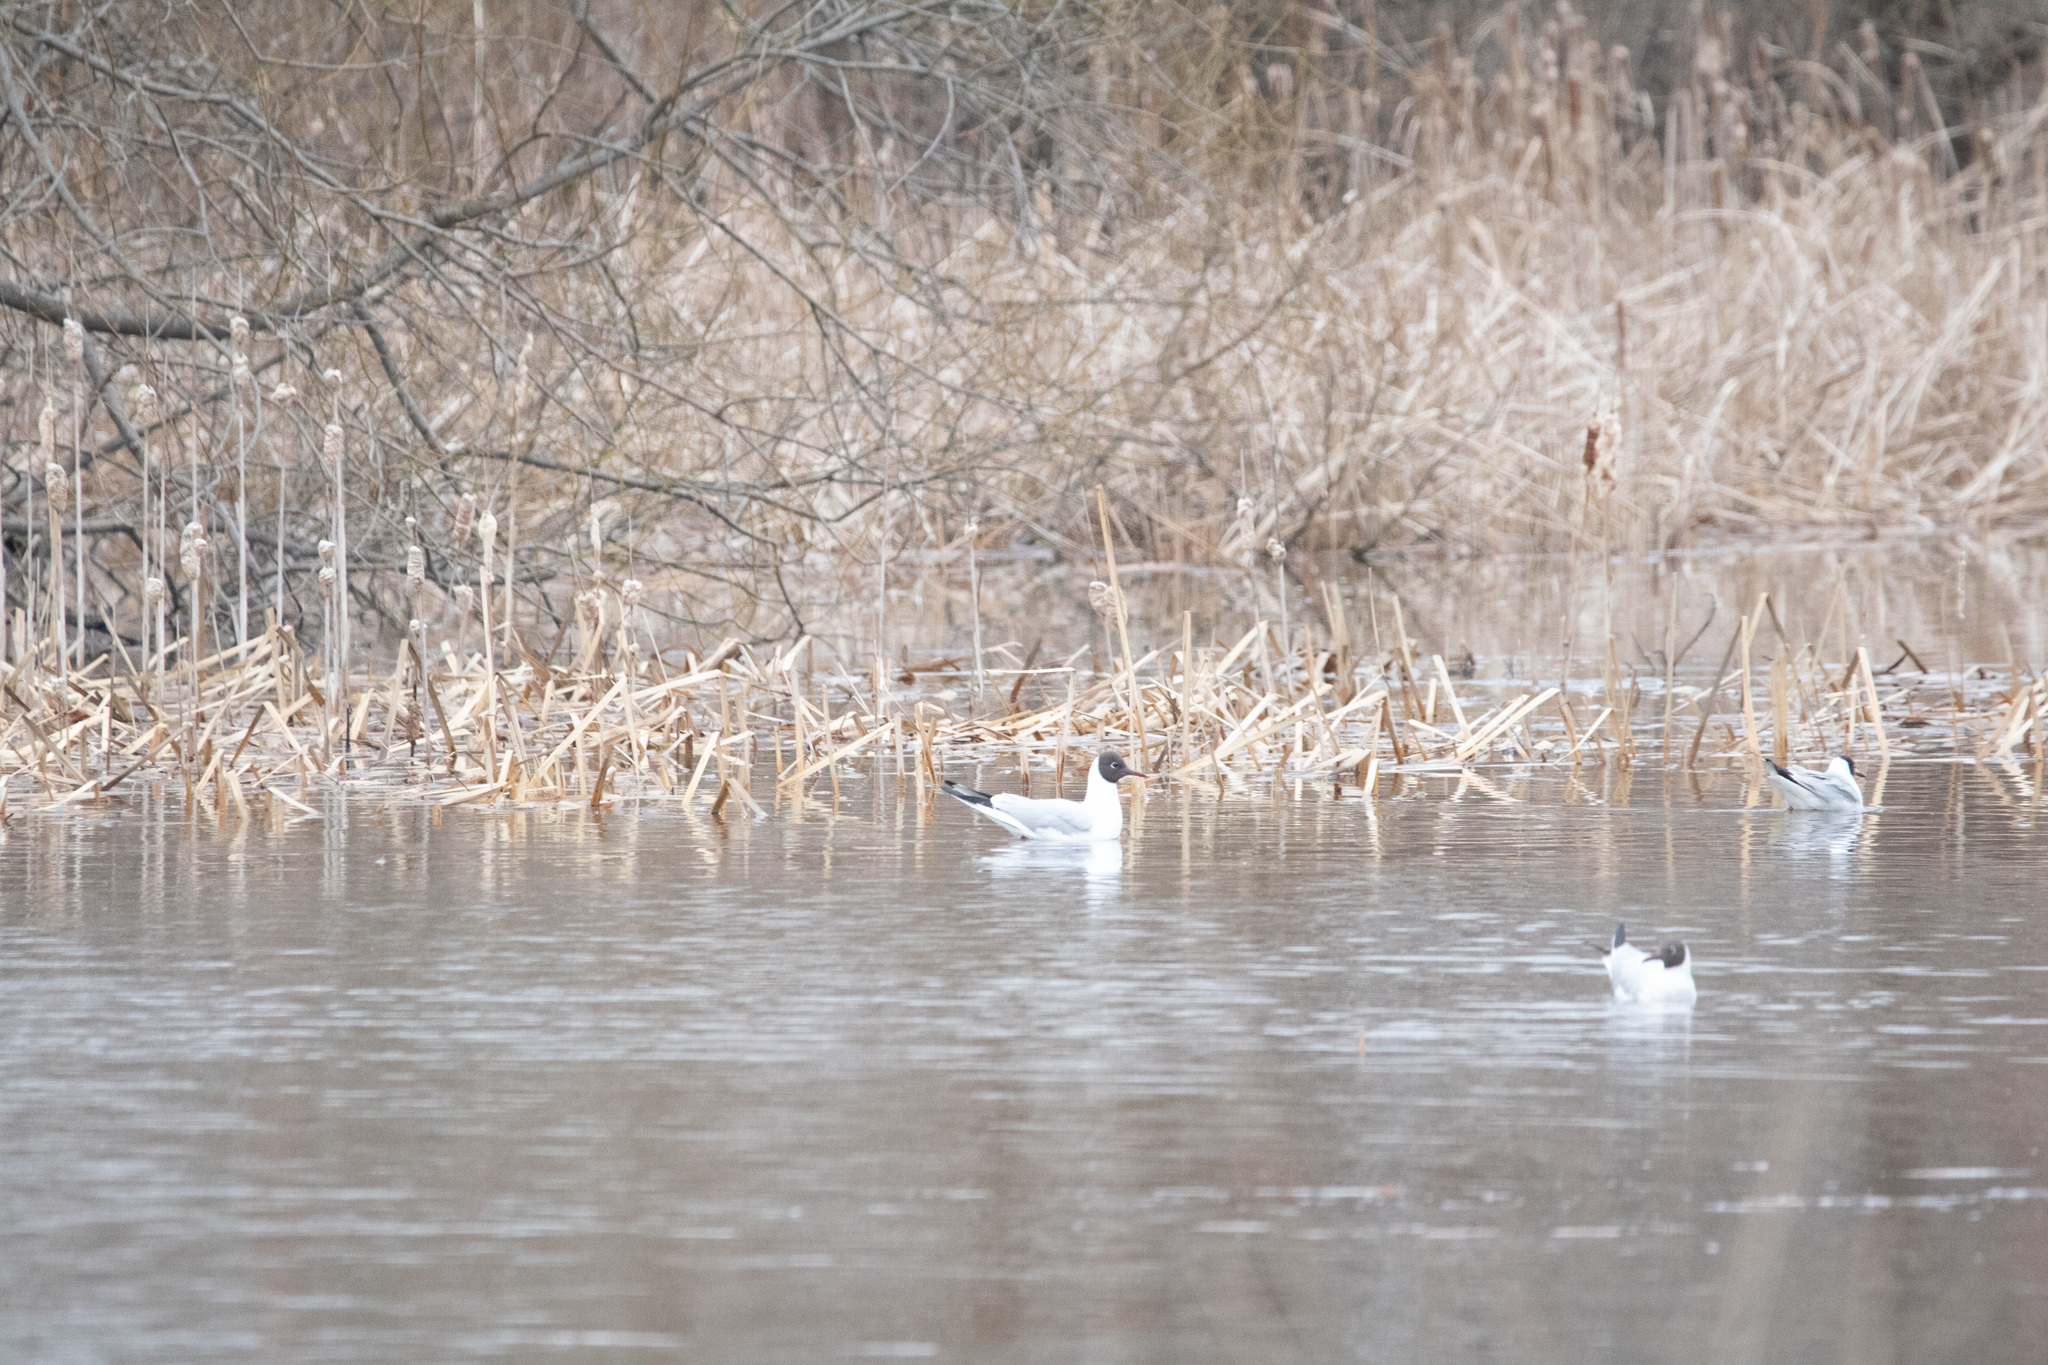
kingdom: Animalia
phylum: Chordata
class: Aves
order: Charadriiformes
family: Laridae
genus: Chroicocephalus
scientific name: Chroicocephalus ridibundus
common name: Black-headed gull
